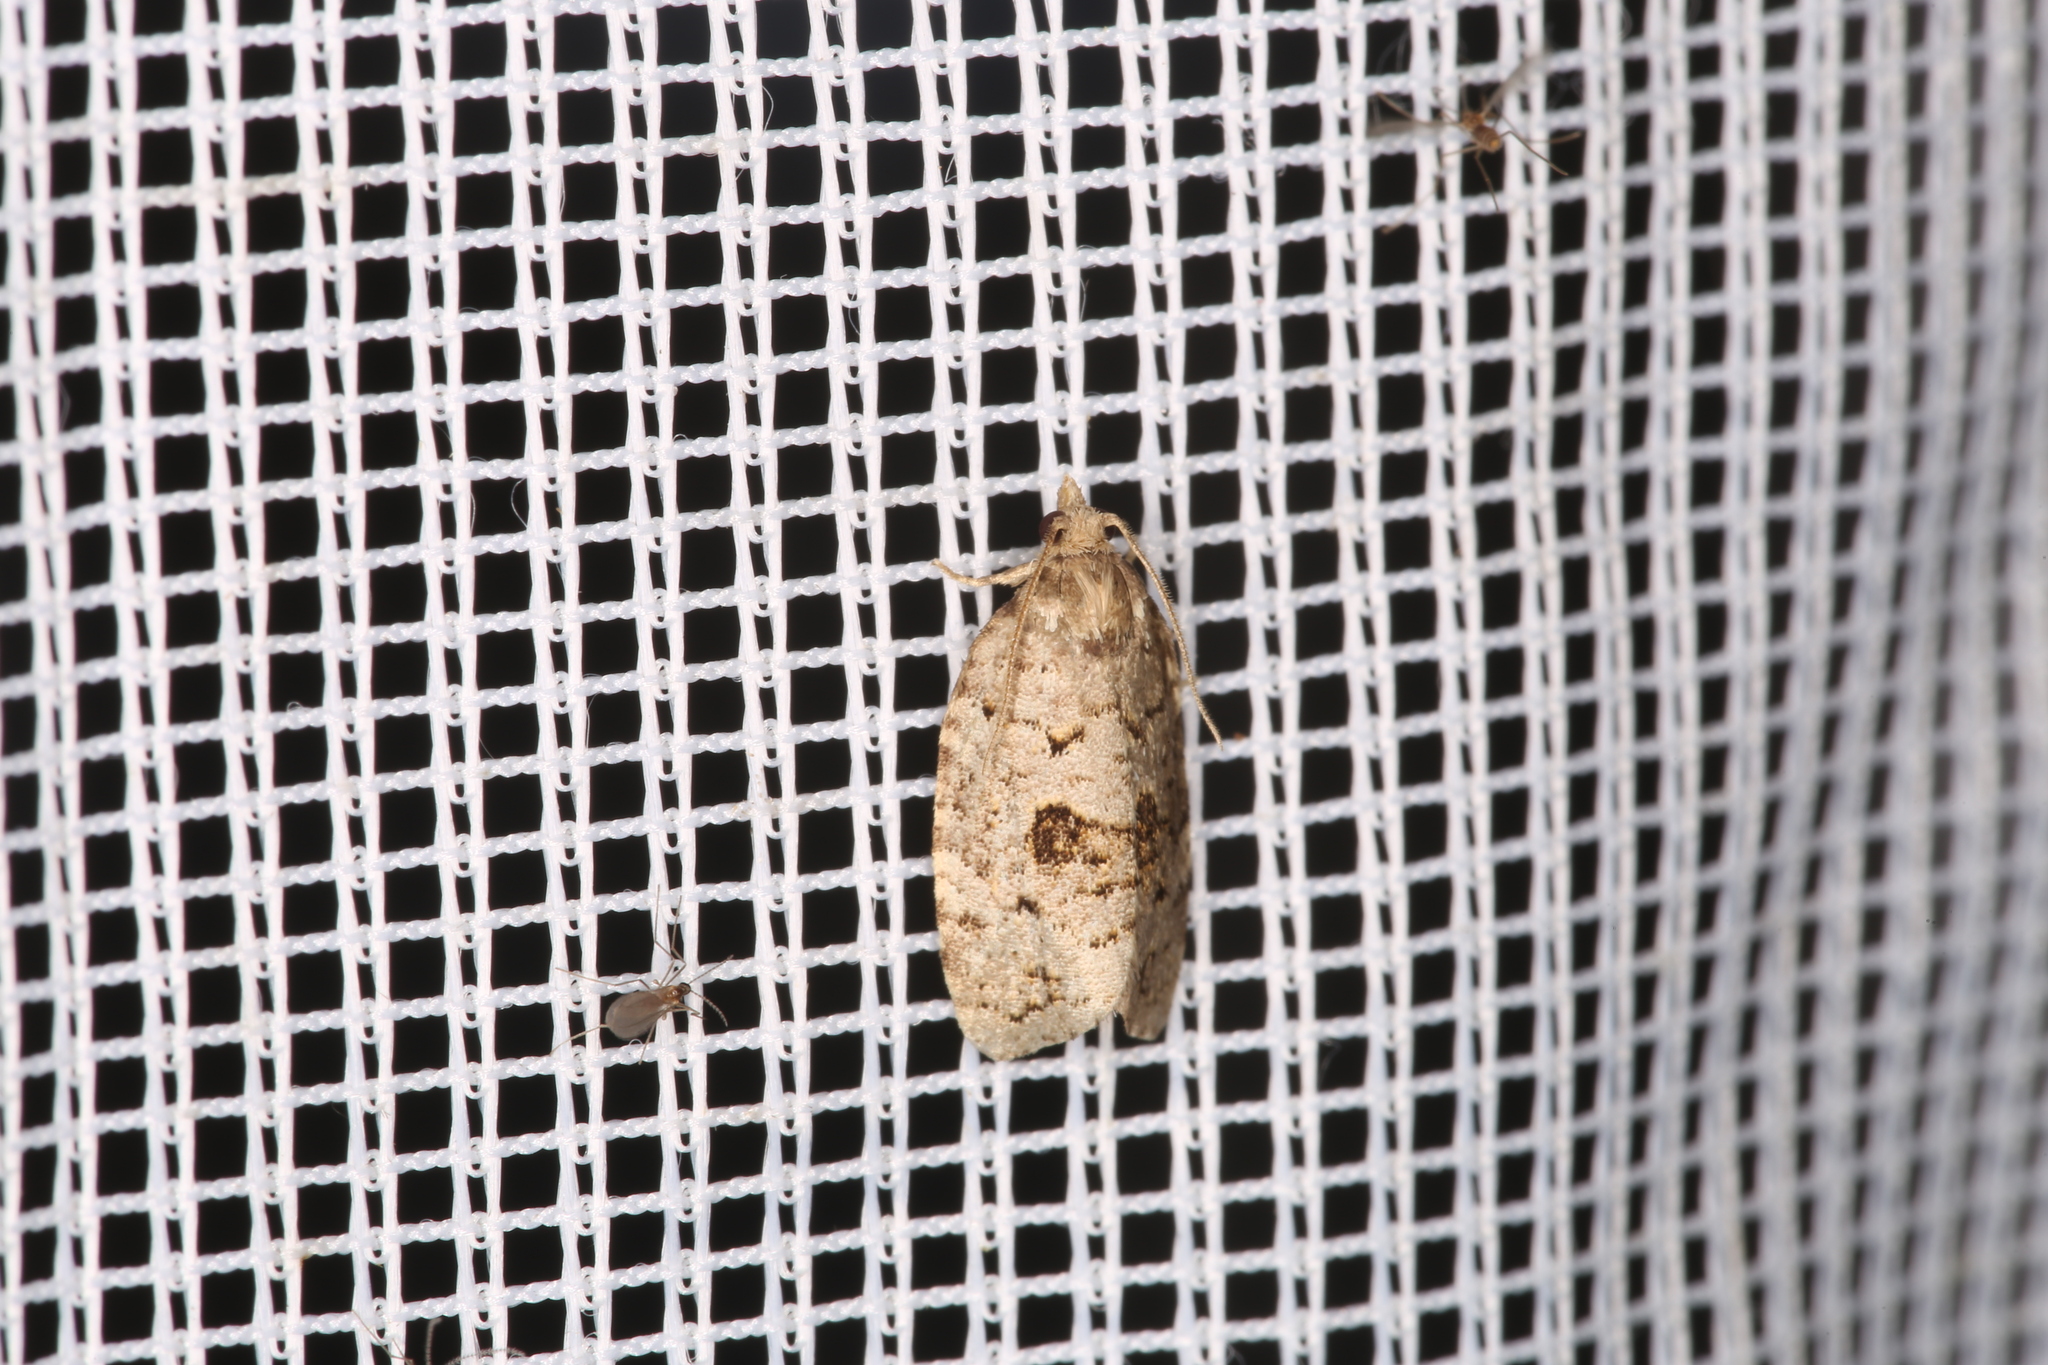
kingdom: Animalia
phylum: Arthropoda
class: Insecta
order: Lepidoptera
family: Tortricidae
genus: Dichelia
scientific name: Dichelia histrionana
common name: Tortricid moth
